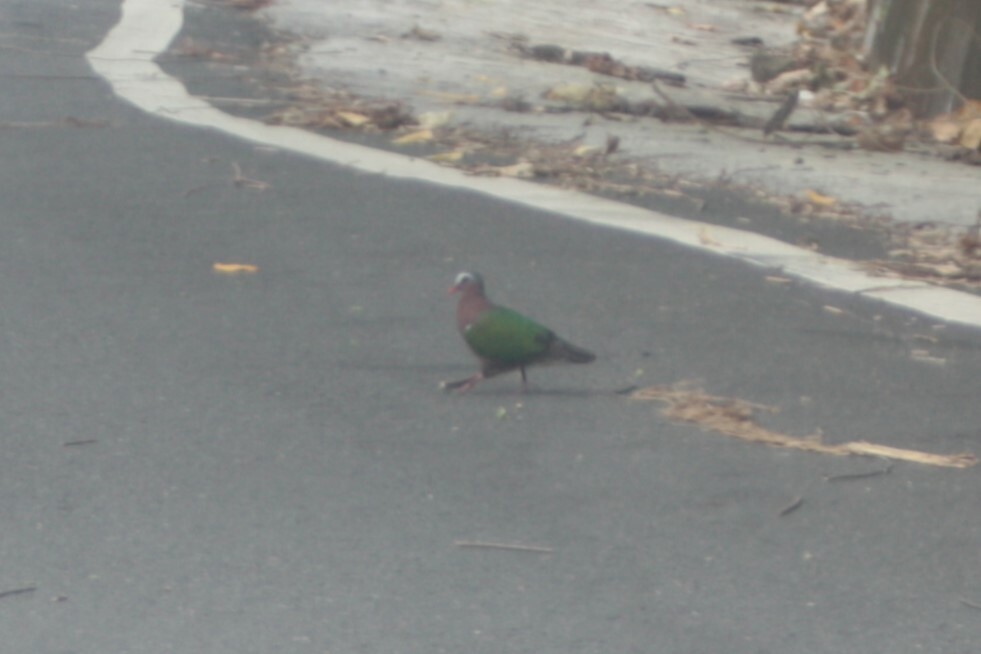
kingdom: Animalia
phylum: Chordata
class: Aves
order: Columbiformes
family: Columbidae
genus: Chalcophaps
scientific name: Chalcophaps indica
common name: Common emerald dove
